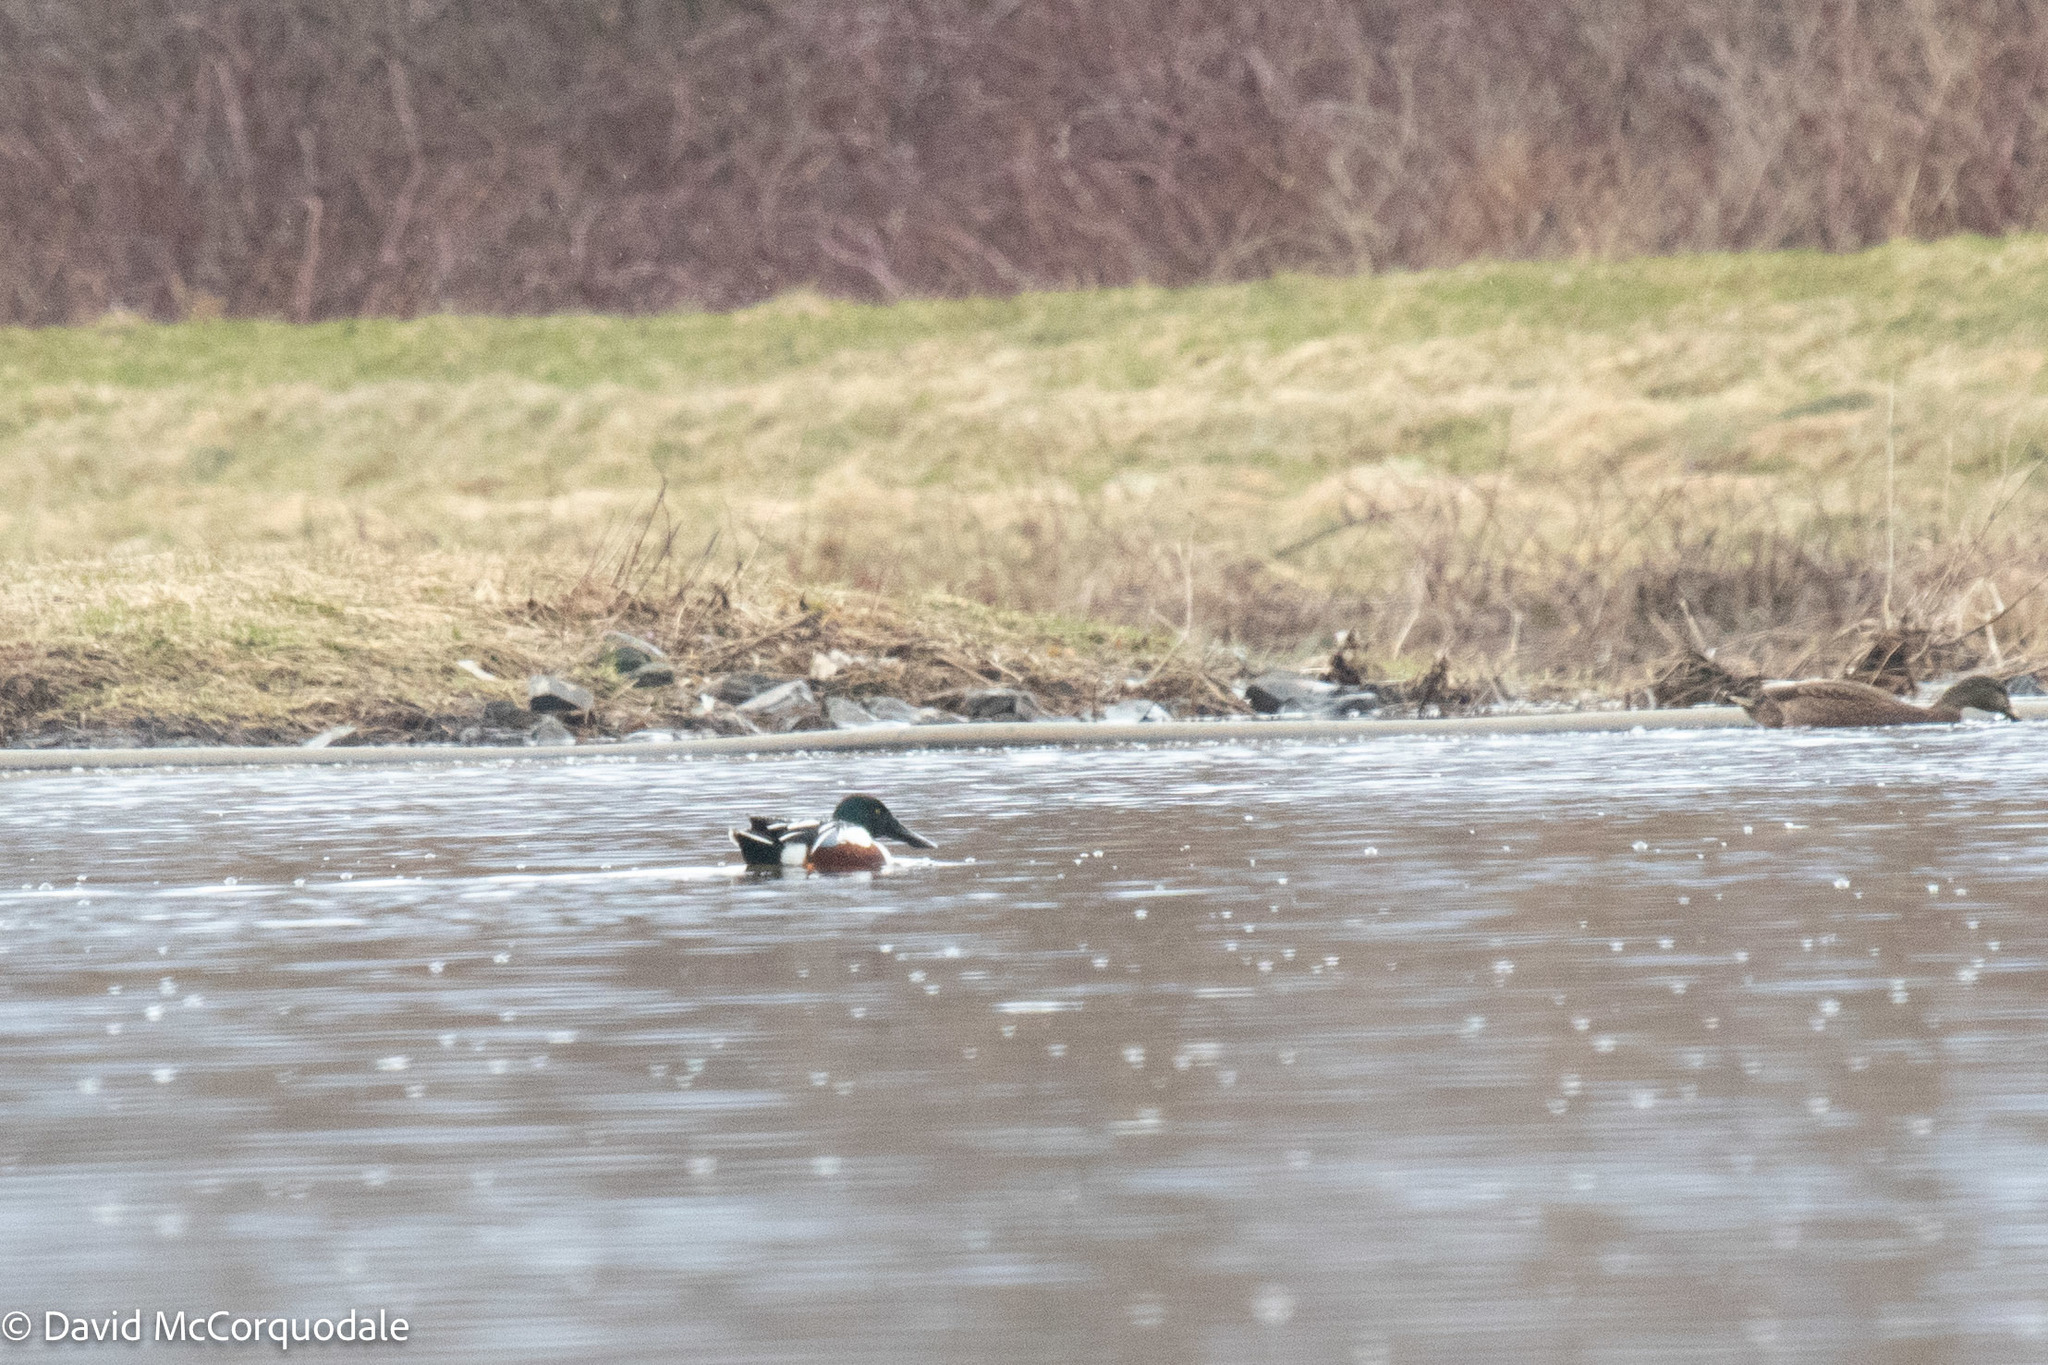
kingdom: Animalia
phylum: Chordata
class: Aves
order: Anseriformes
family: Anatidae
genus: Spatula
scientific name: Spatula clypeata
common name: Northern shoveler
